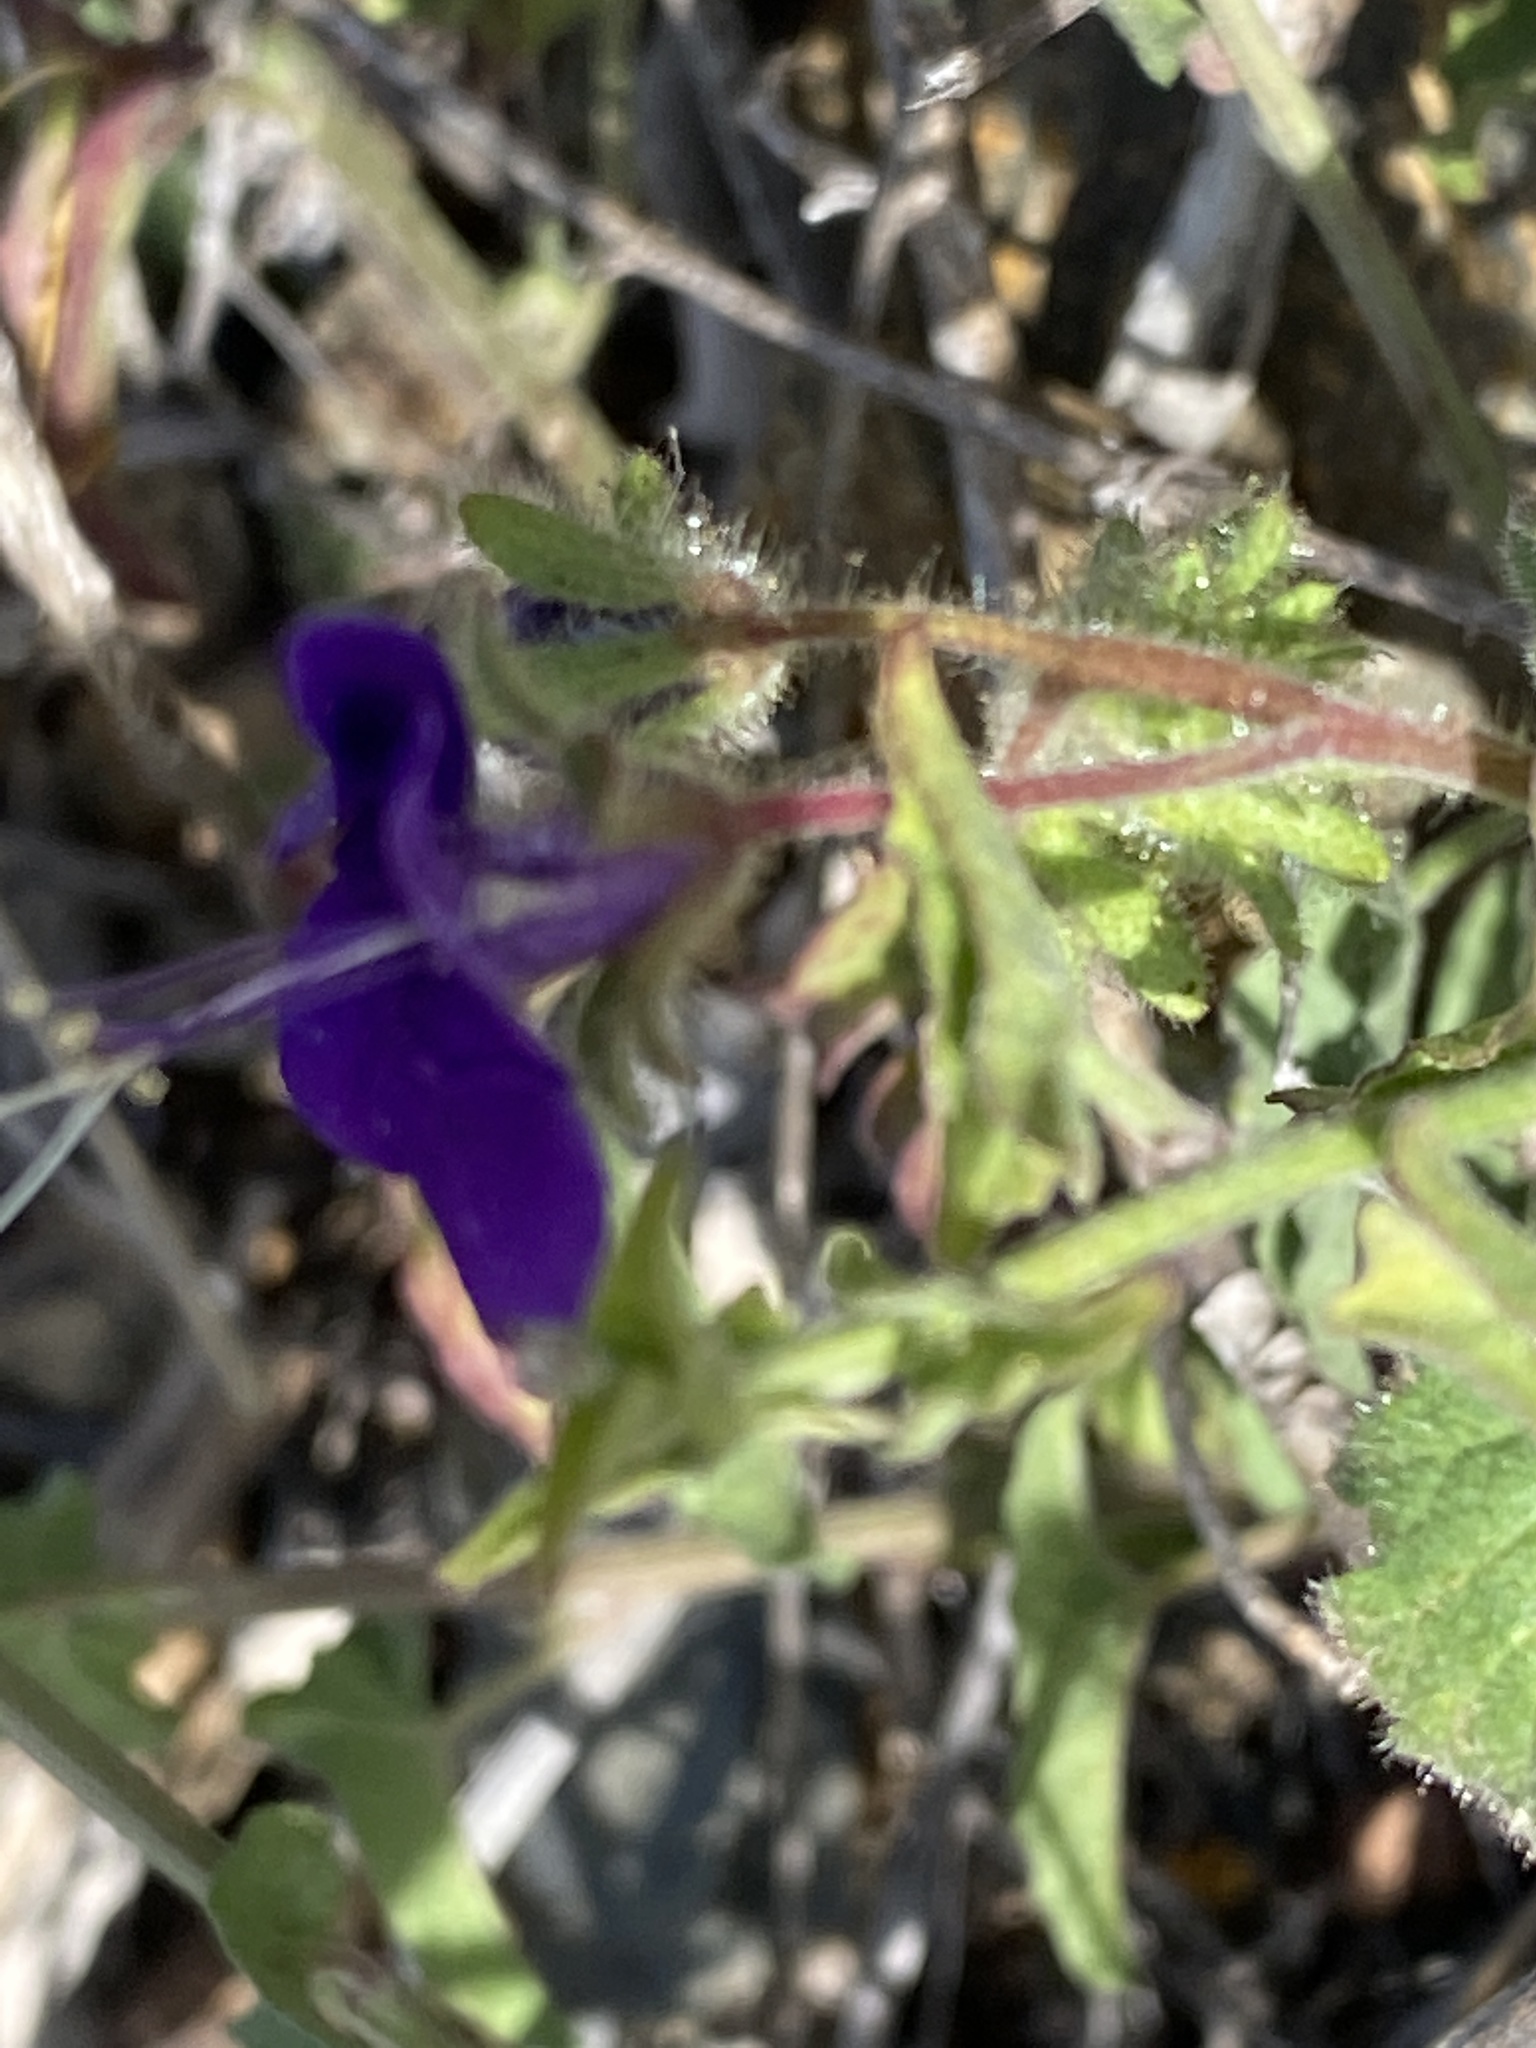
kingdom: Plantae
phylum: Tracheophyta
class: Magnoliopsida
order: Boraginales
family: Hydrophyllaceae
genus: Phacelia
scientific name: Phacelia parryi
